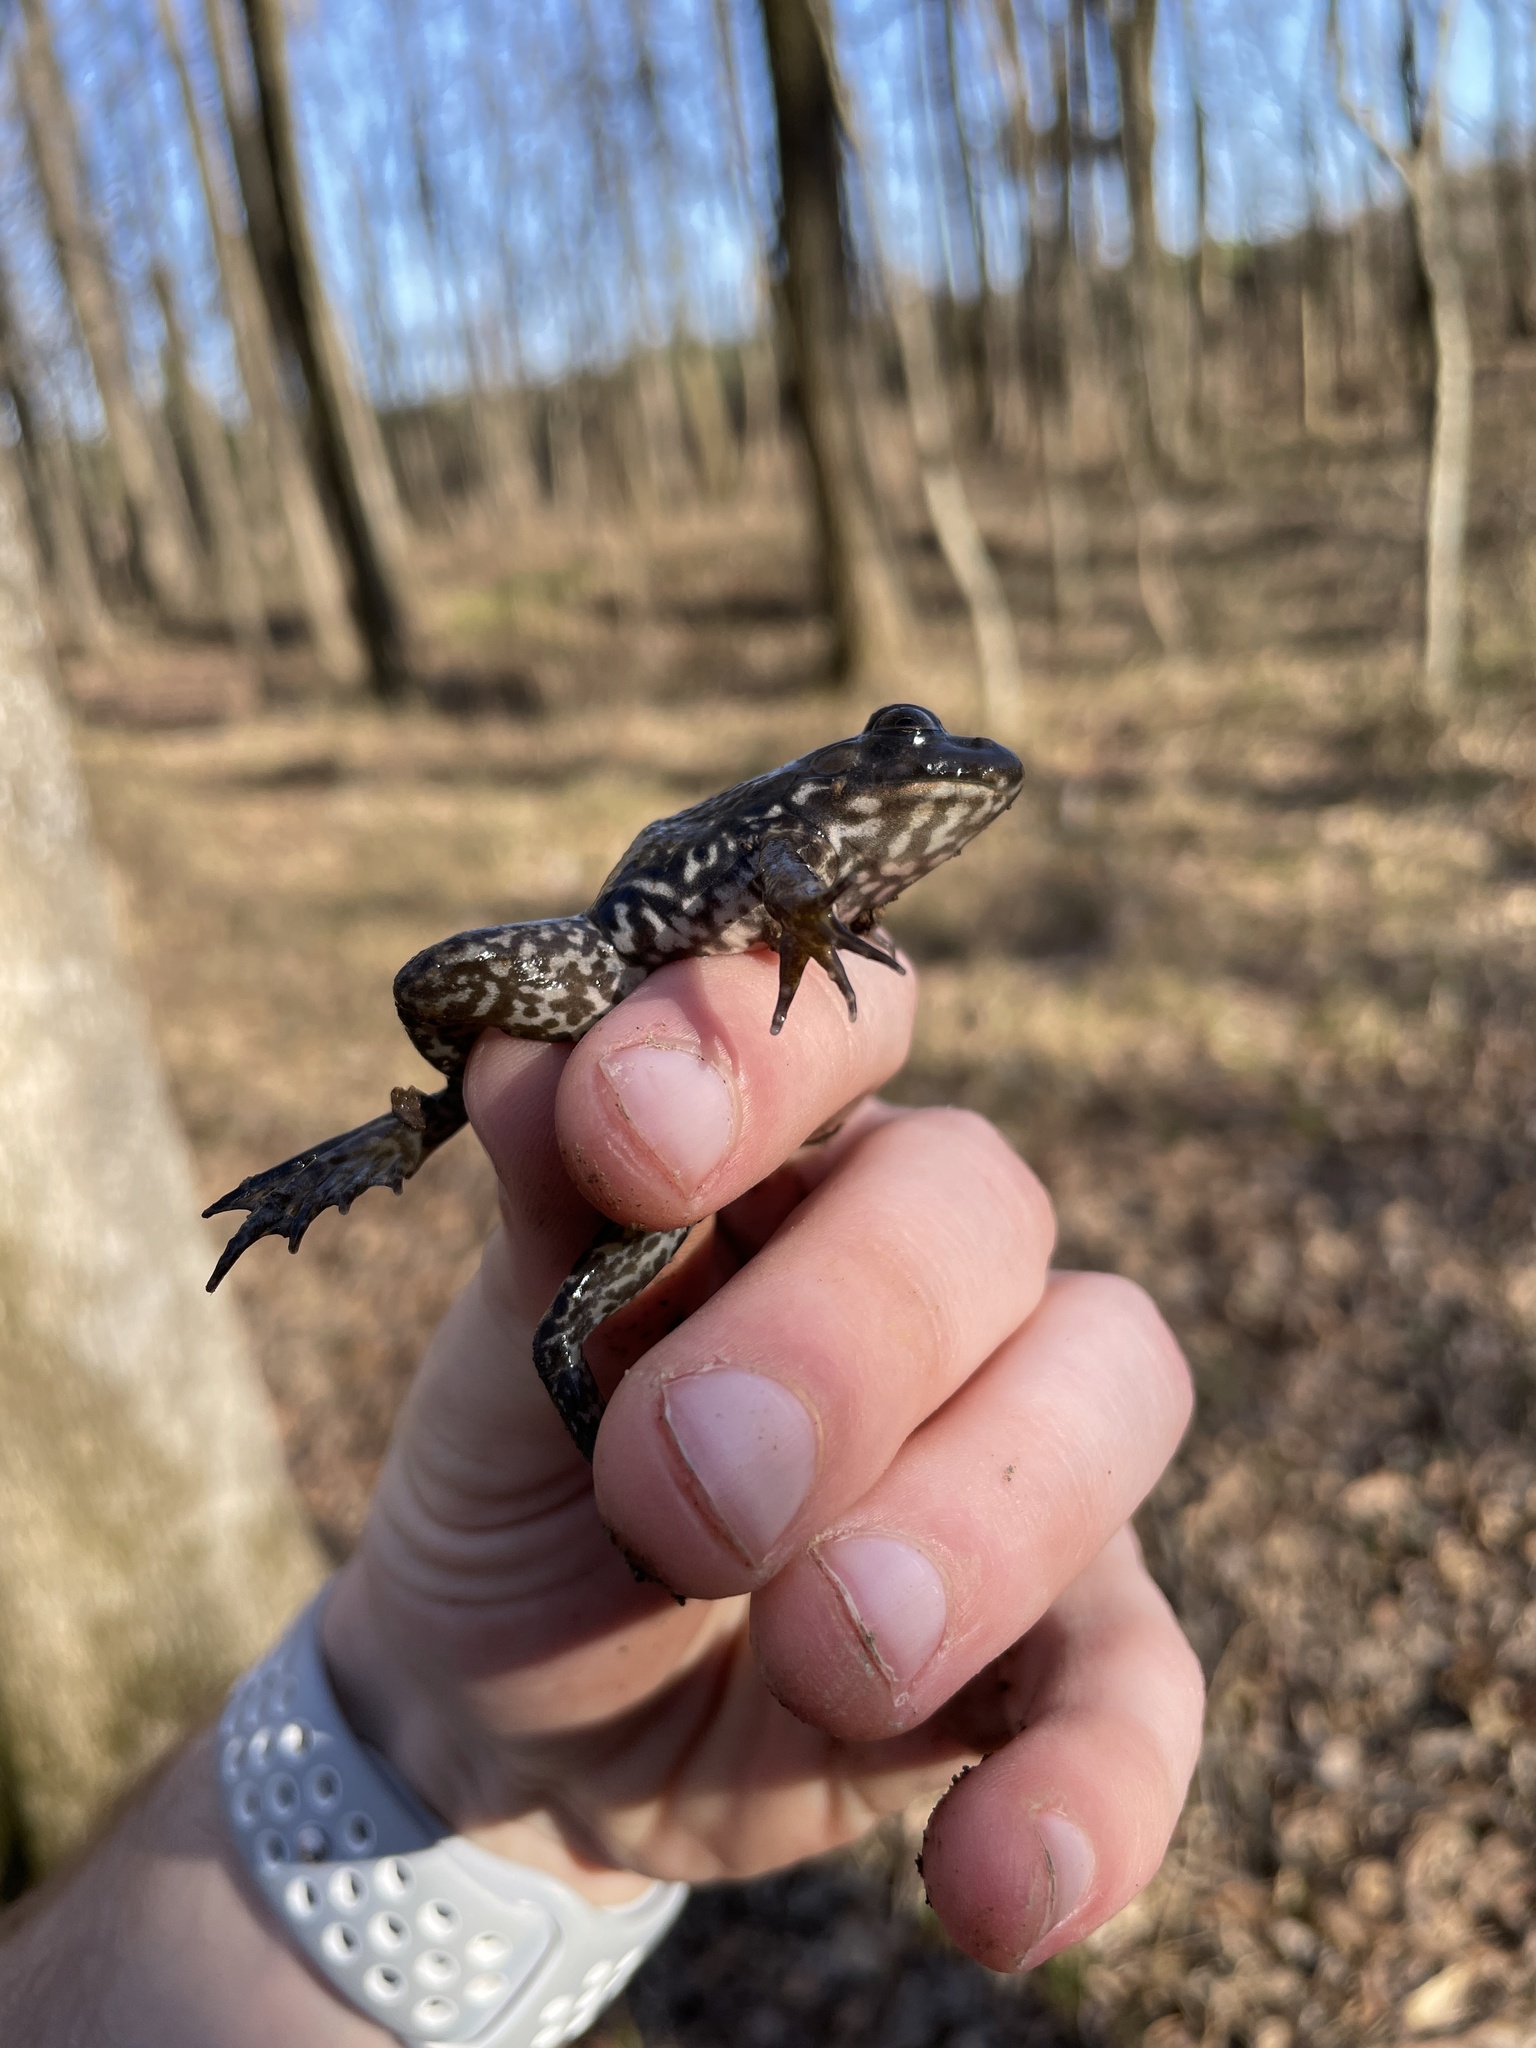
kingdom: Animalia
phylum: Chordata
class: Amphibia
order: Anura
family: Ranidae
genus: Lithobates
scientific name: Lithobates catesbeianus
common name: American bullfrog
